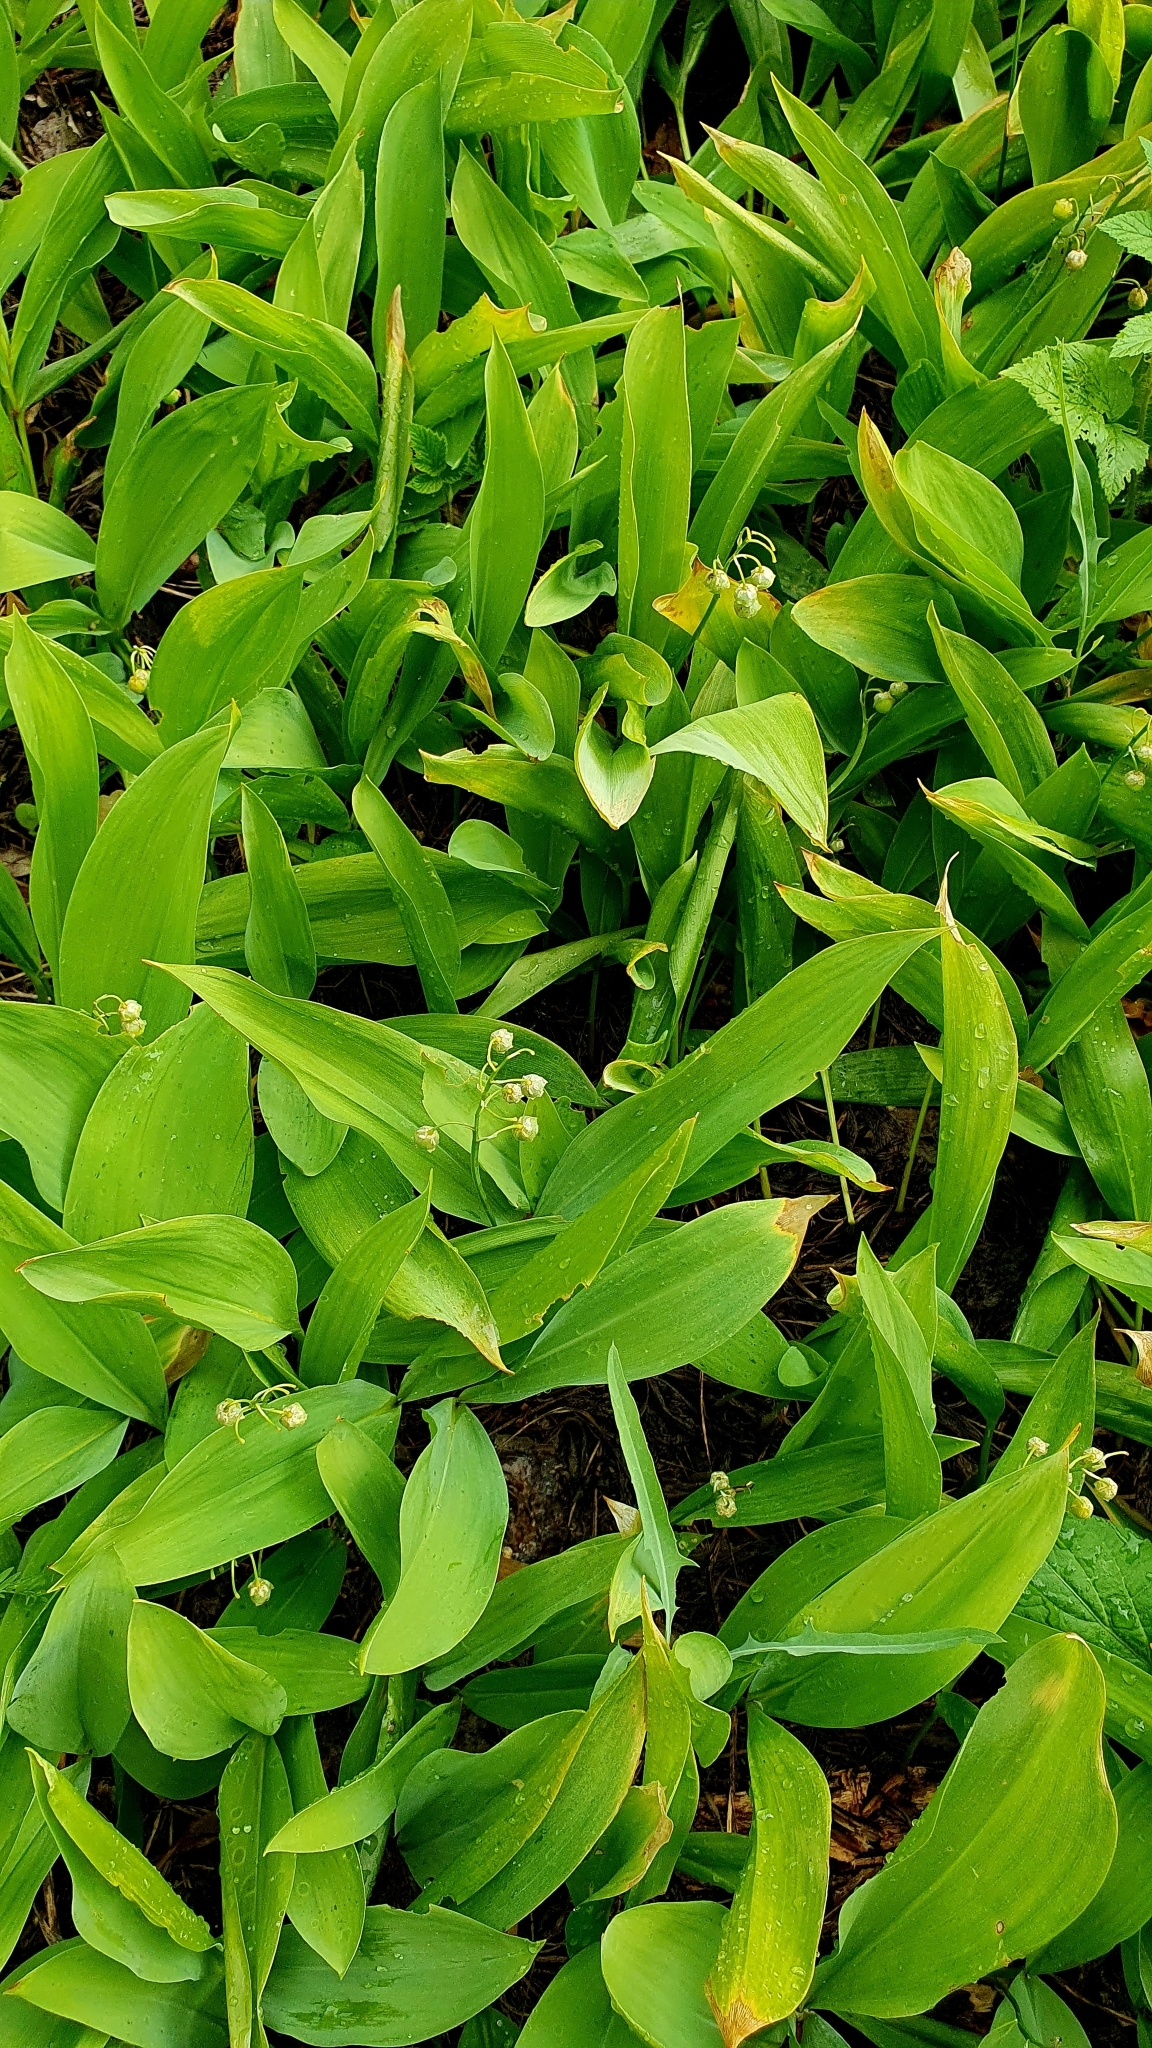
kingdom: Plantae
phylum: Tracheophyta
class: Liliopsida
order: Asparagales
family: Asparagaceae
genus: Convallaria
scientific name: Convallaria majalis
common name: Lily-of-the-valley
